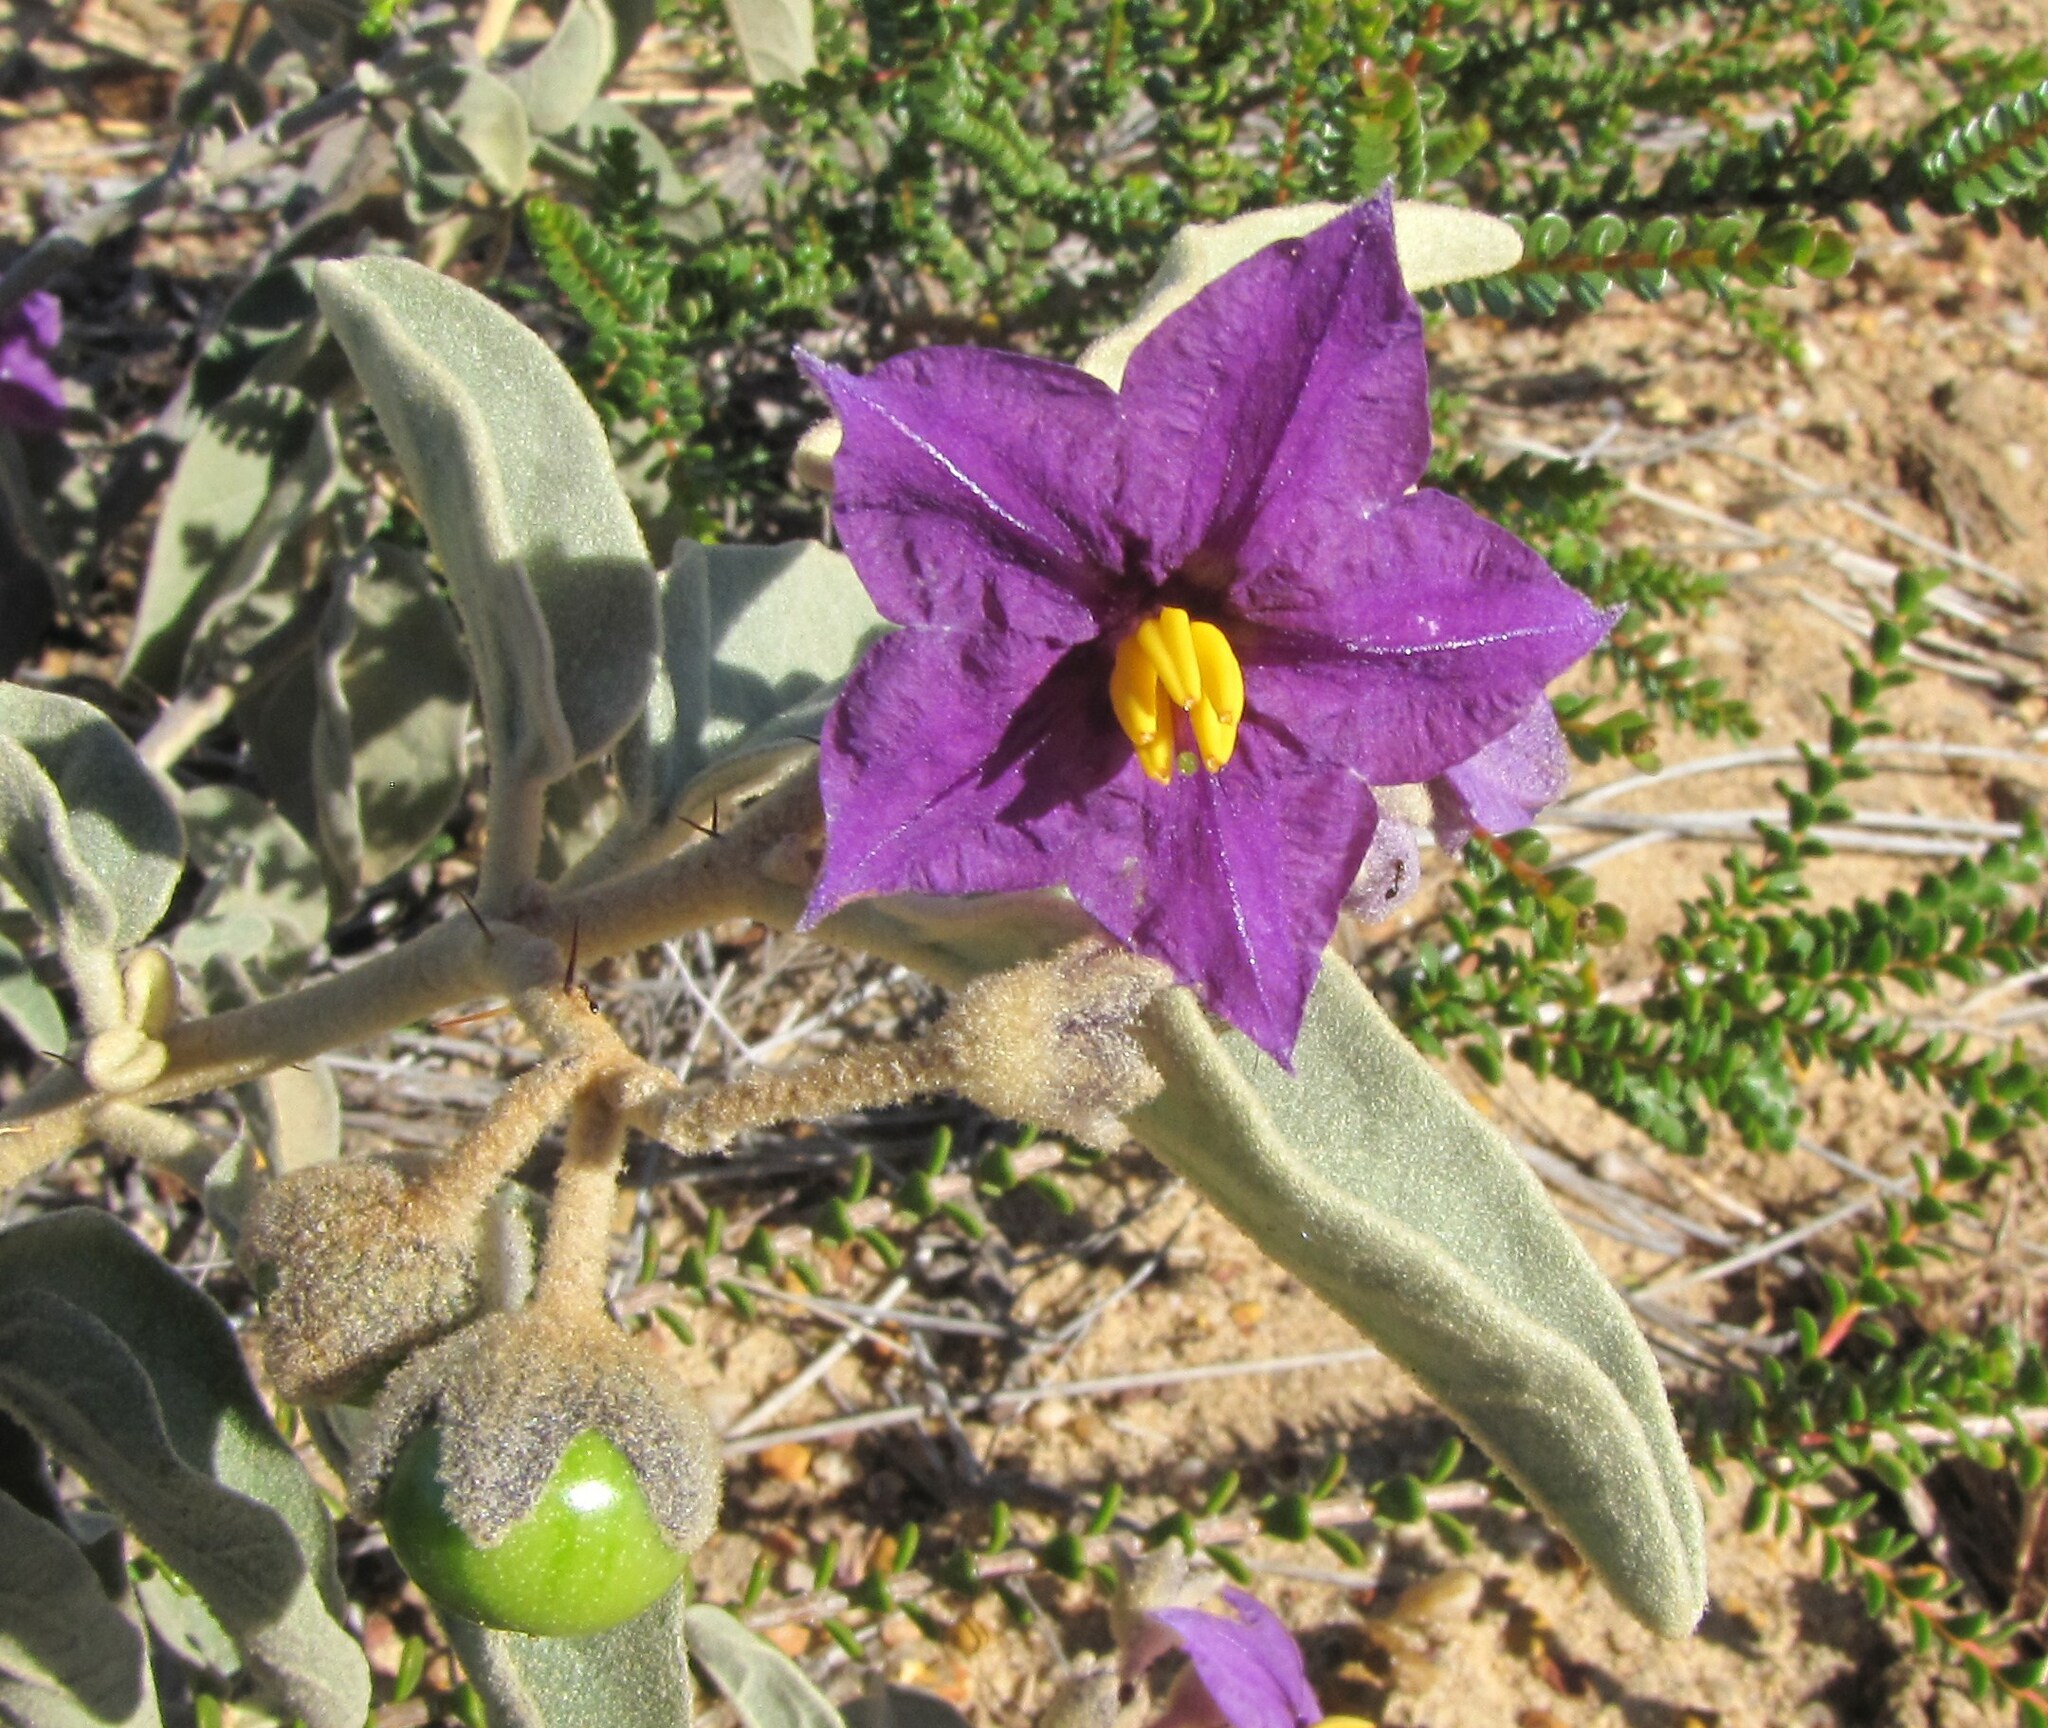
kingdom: Plantae
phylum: Tracheophyta
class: Magnoliopsida
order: Solanales
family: Solanaceae
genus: Solanum
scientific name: Solanum lasiophyllum
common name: Flannelbush
